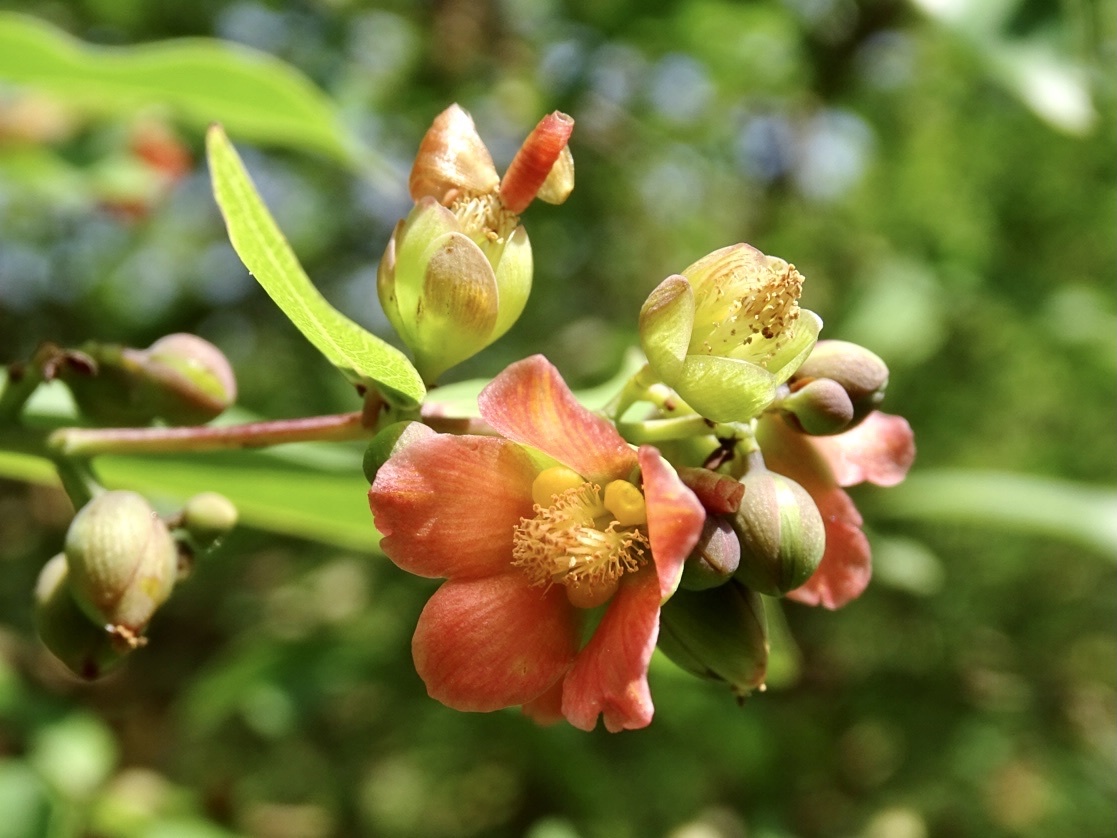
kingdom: Plantae
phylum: Tracheophyta
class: Magnoliopsida
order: Malpighiales
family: Hypericaceae
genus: Cratoxylum
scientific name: Cratoxylum cochinchinense
